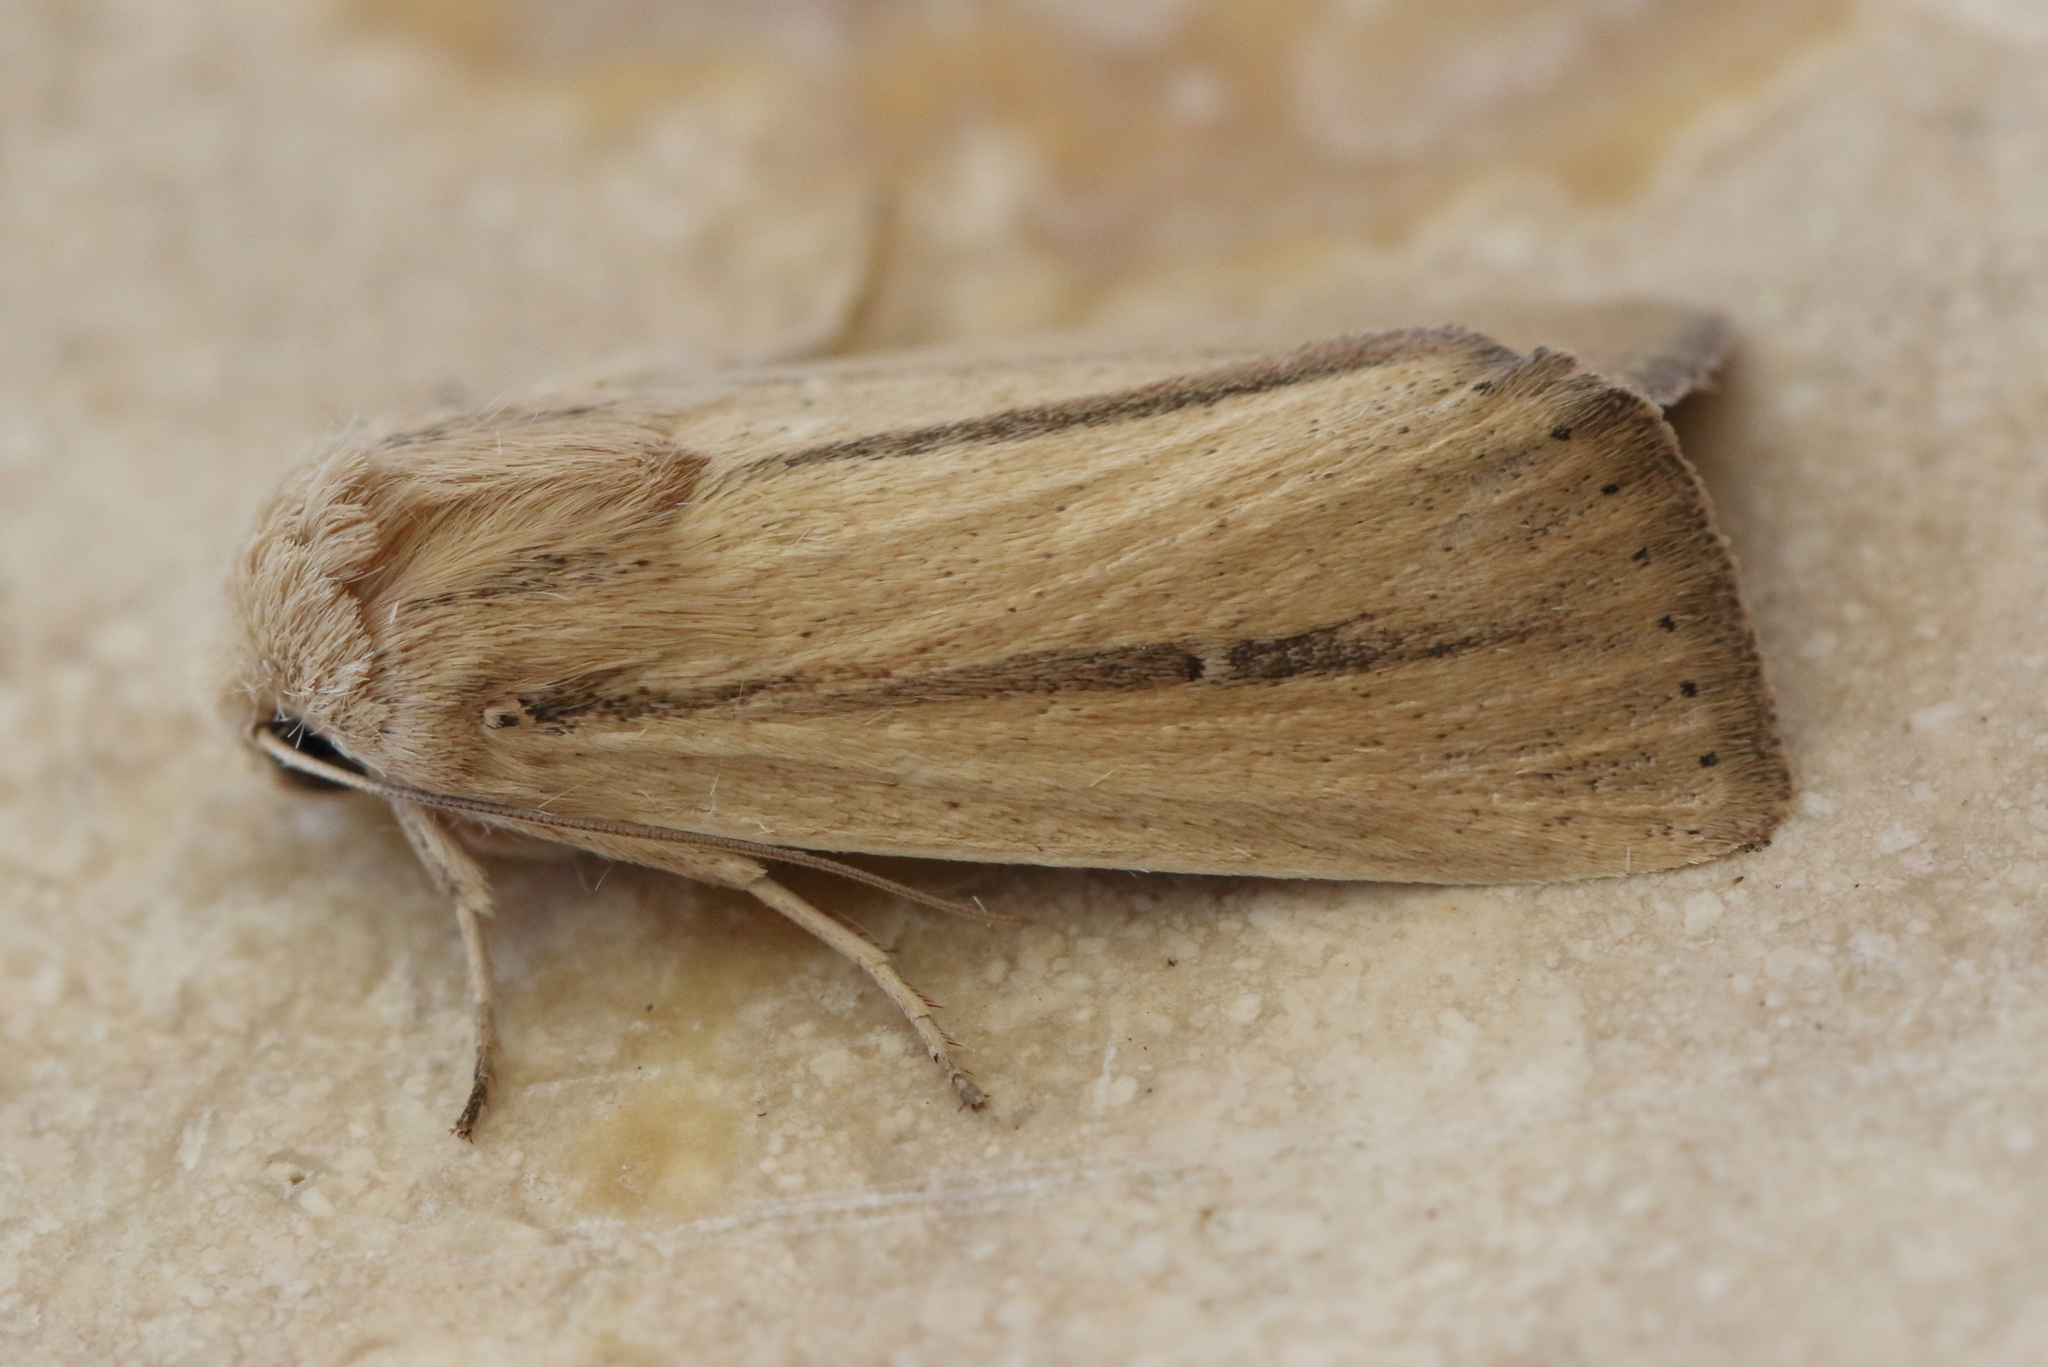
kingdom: Animalia
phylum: Arthropoda
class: Insecta
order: Lepidoptera
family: Noctuidae
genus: Leucania
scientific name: Leucania diatrecta
